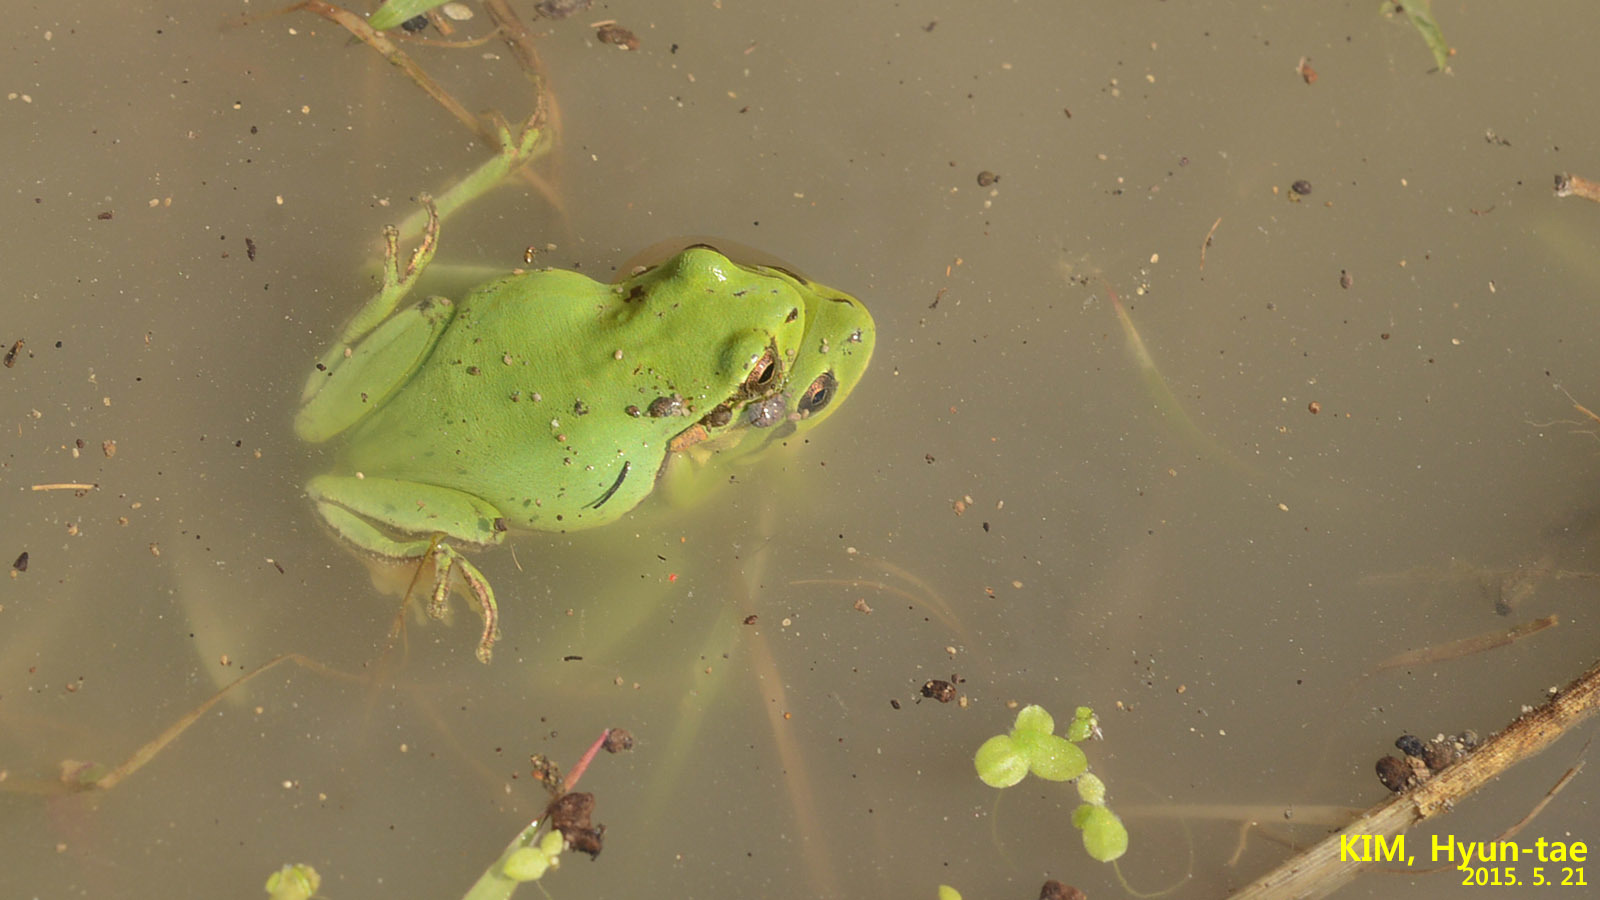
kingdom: Animalia
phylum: Chordata
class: Amphibia
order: Anura
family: Hylidae
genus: Dryophytes
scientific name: Dryophytes immaculatus
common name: North china treefrog
